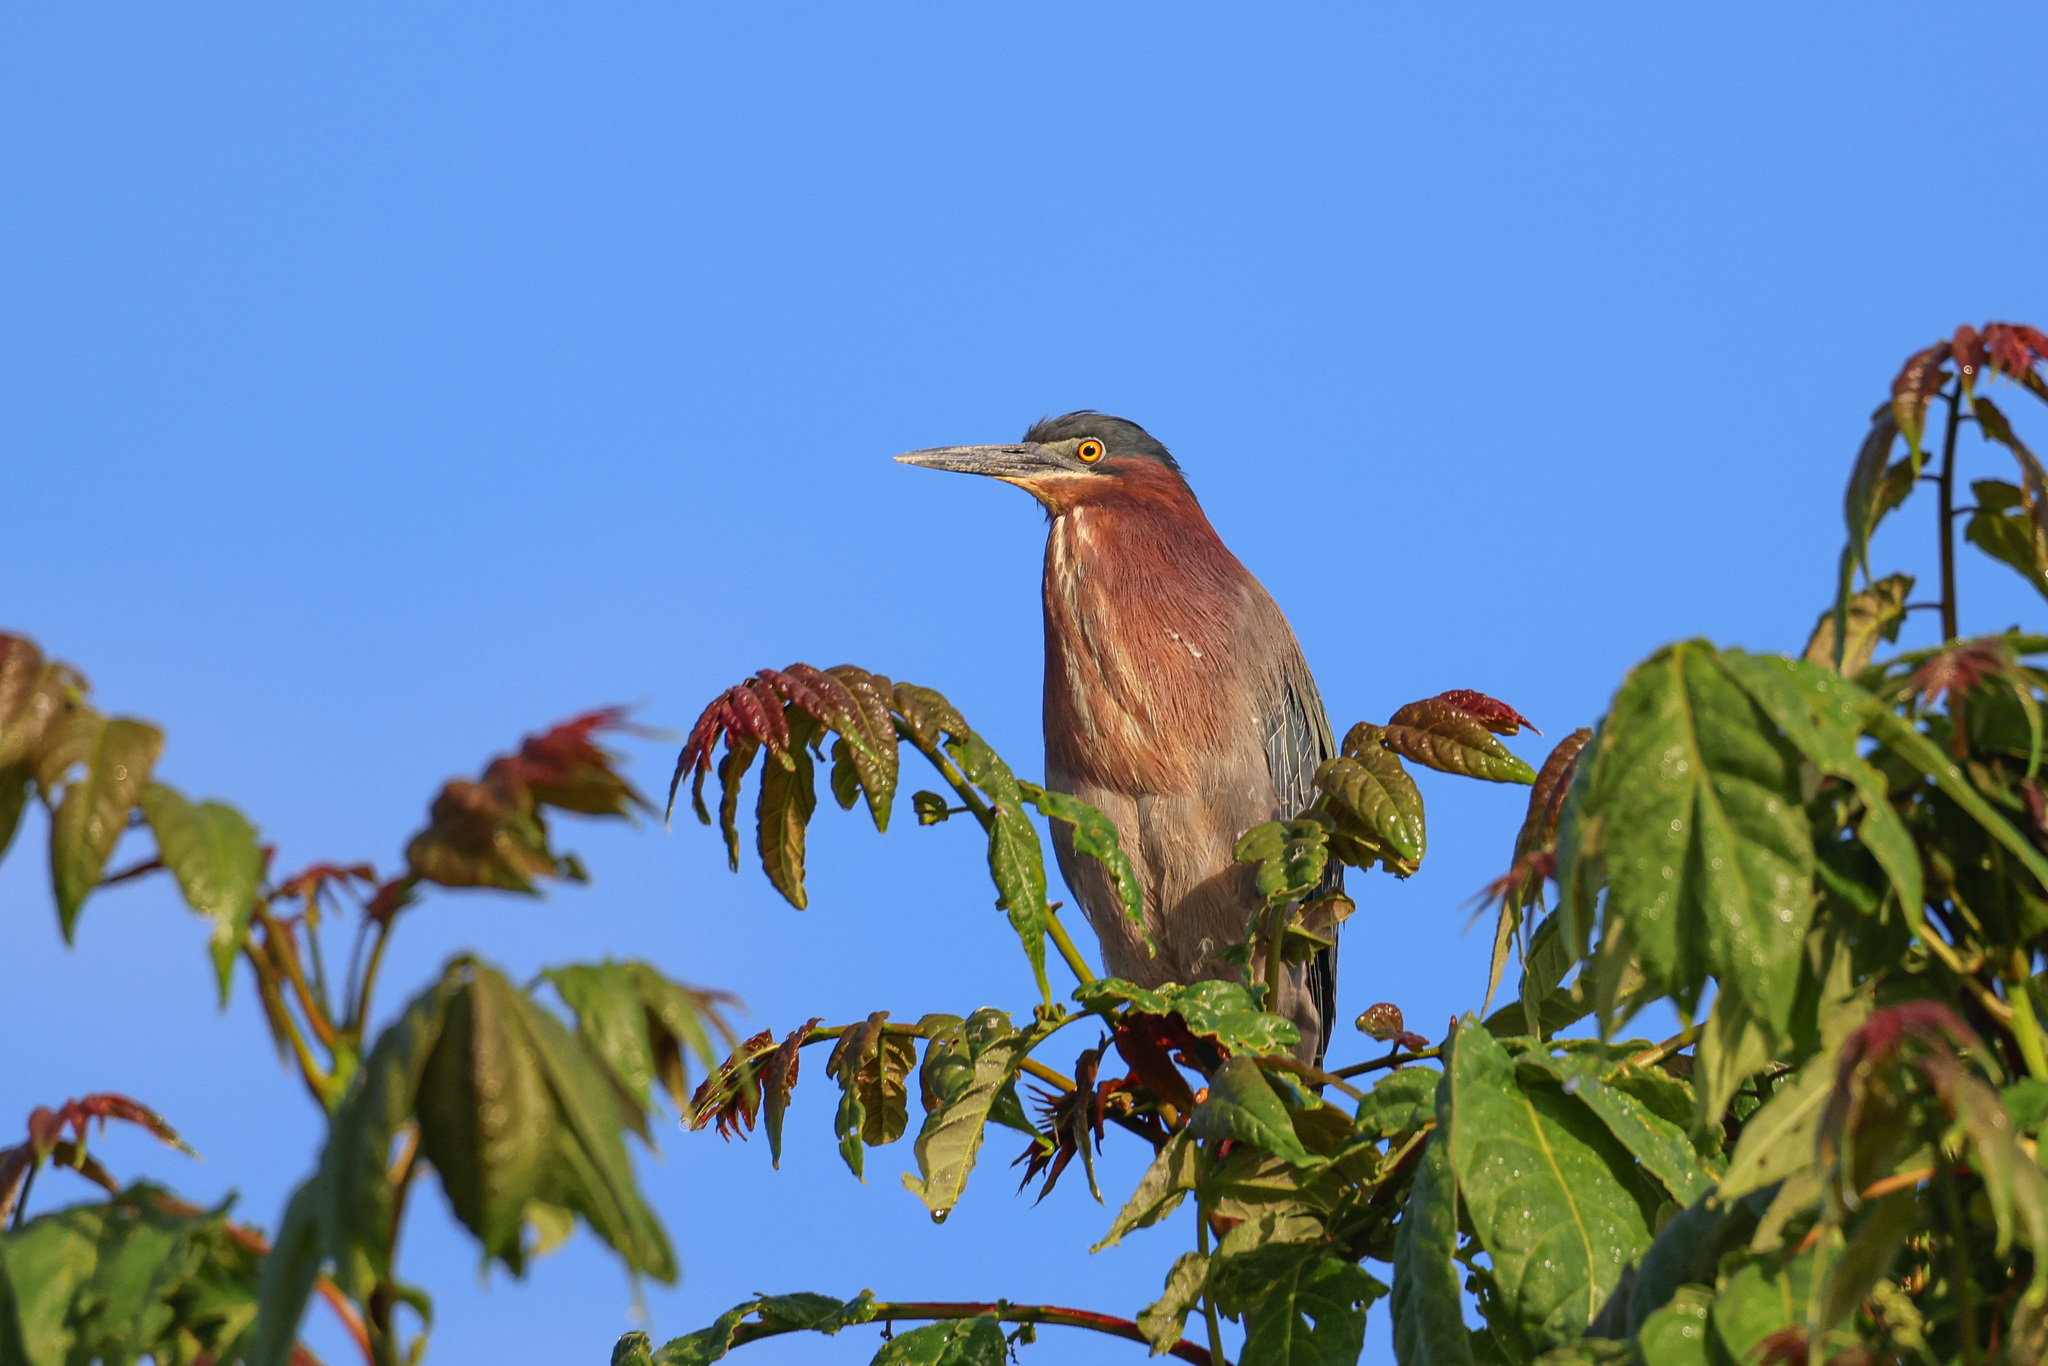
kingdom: Animalia
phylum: Chordata
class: Aves
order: Pelecaniformes
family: Ardeidae
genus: Butorides
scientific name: Butorides virescens
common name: Green heron
